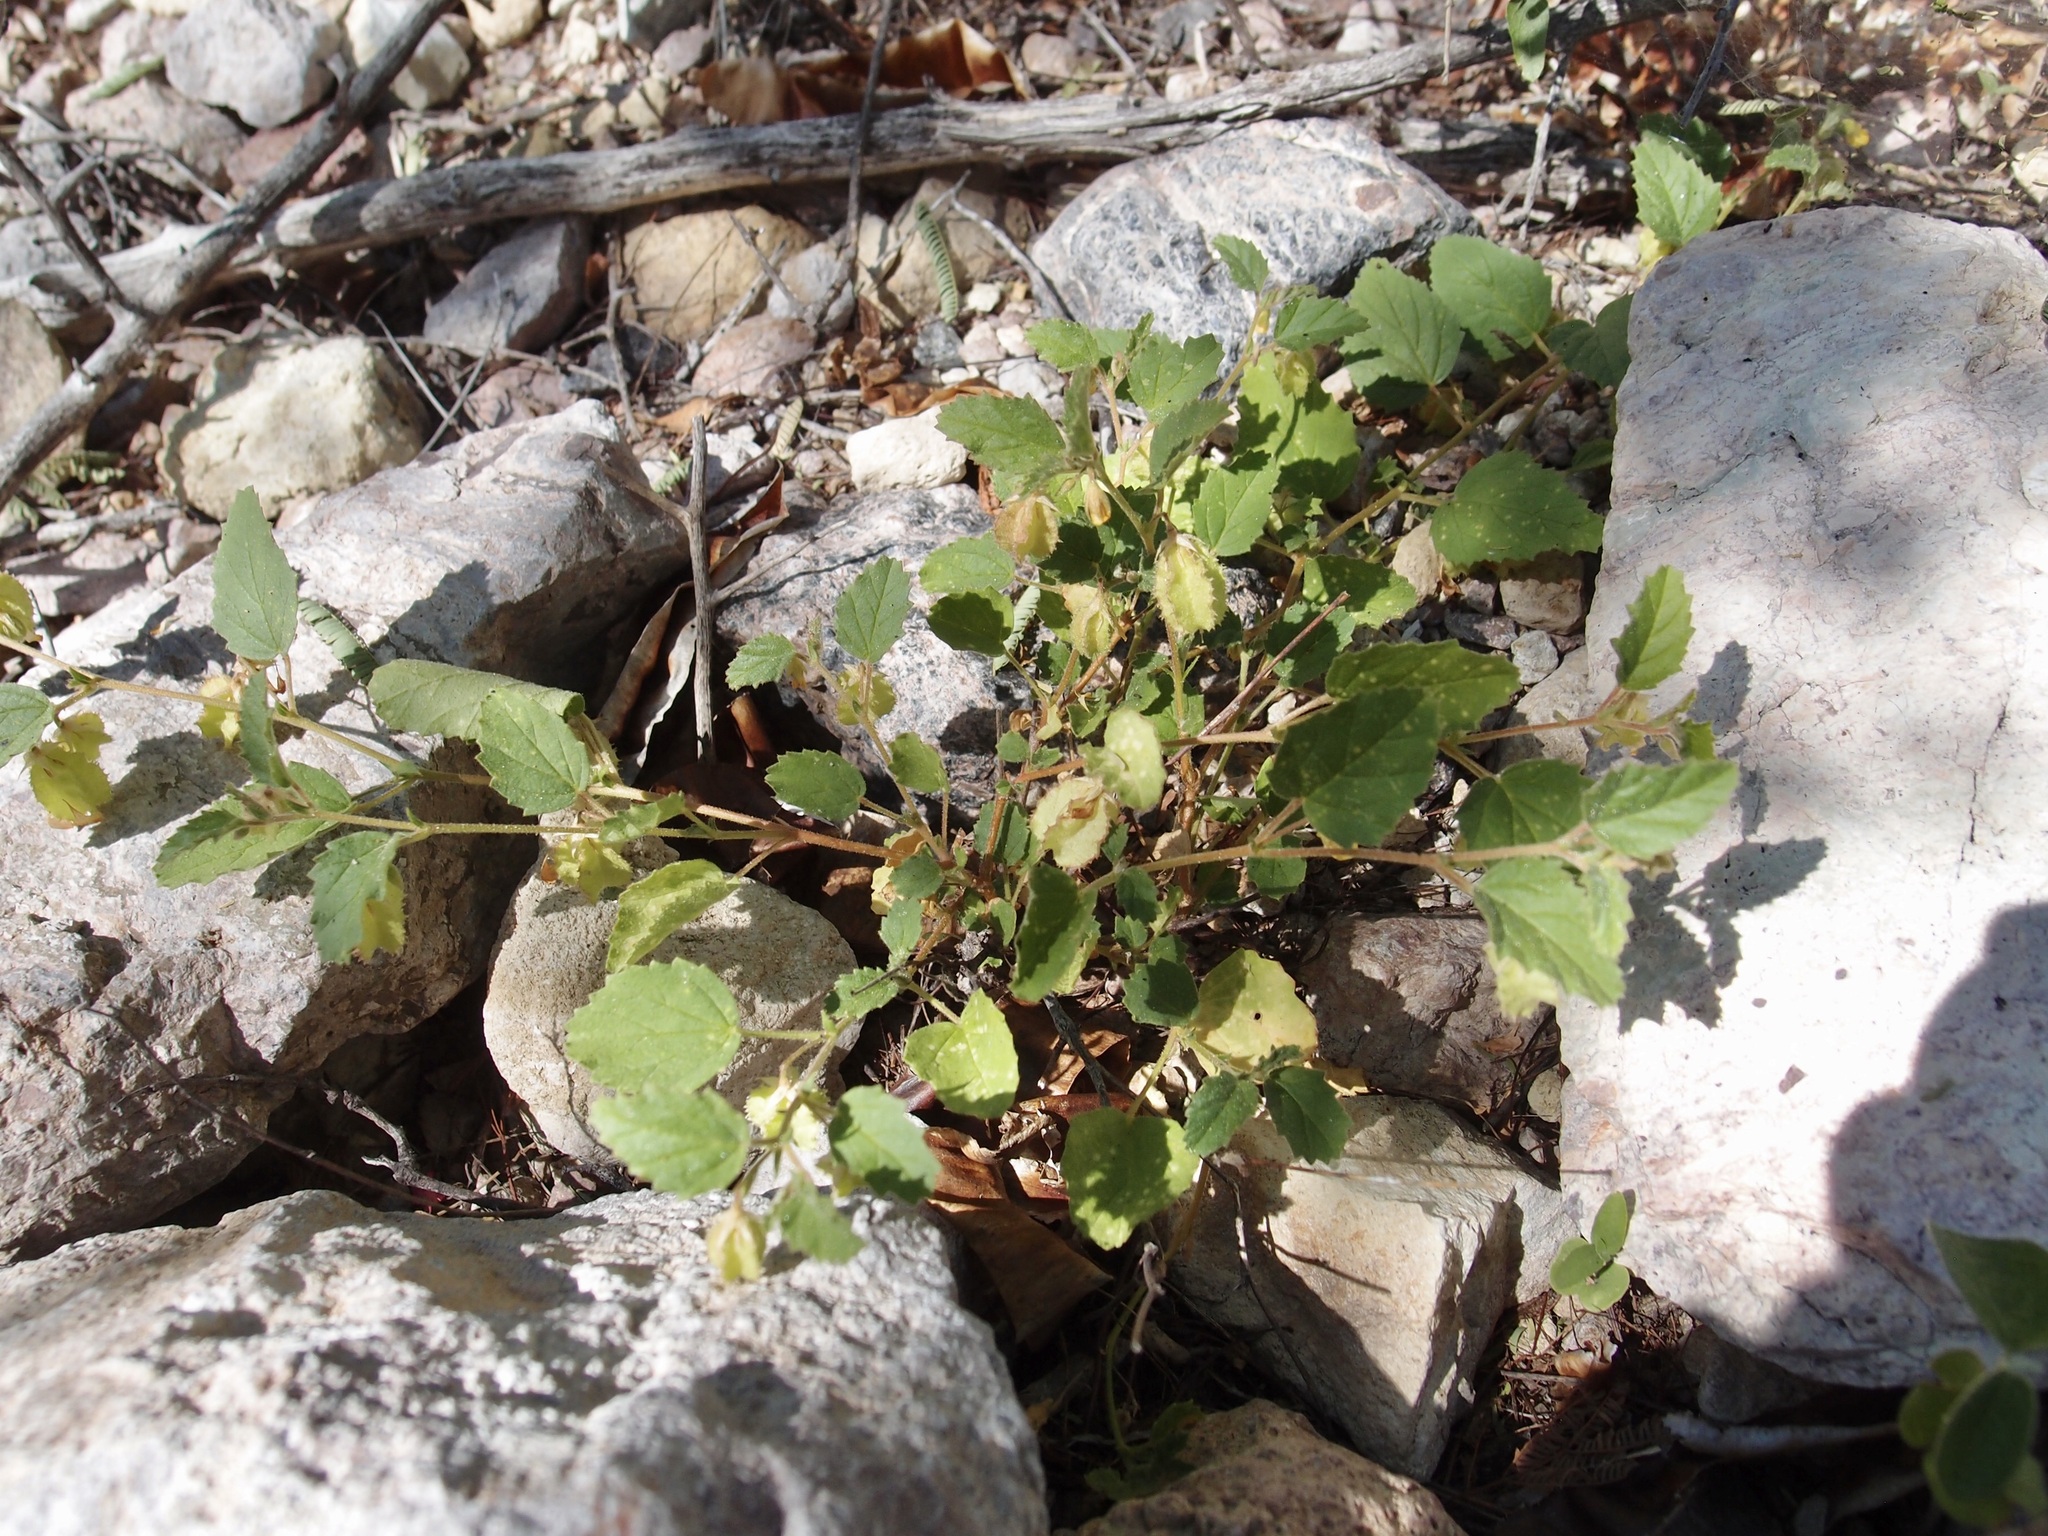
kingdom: Plantae
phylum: Tracheophyta
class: Magnoliopsida
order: Malvales
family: Malvaceae
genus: Hermannia
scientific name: Hermannia pauciflora
